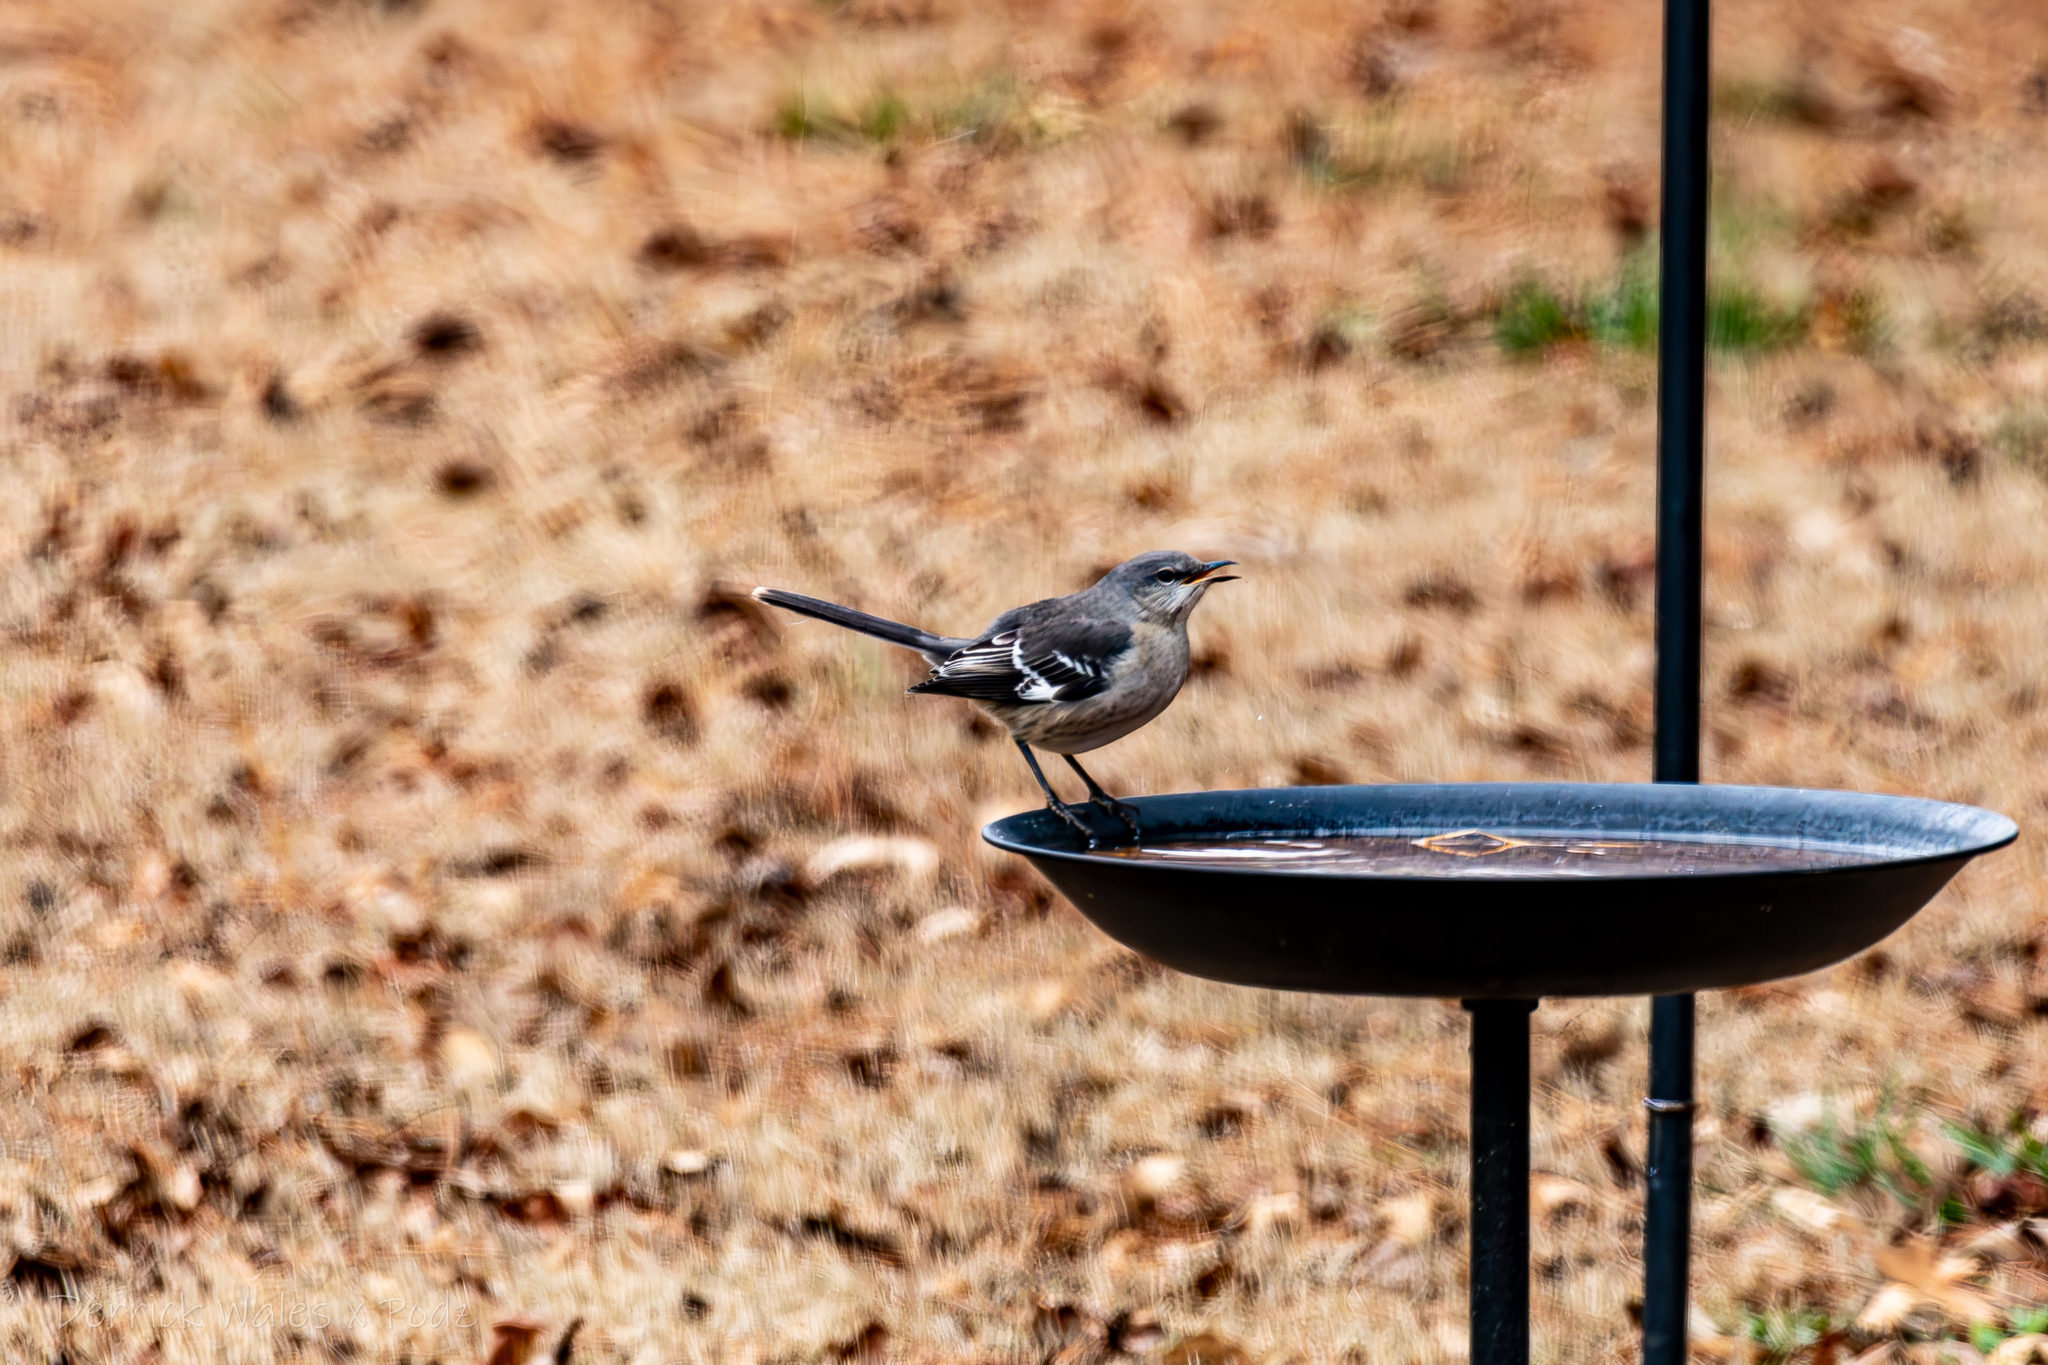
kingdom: Animalia
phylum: Chordata
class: Aves
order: Passeriformes
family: Mimidae
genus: Mimus
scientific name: Mimus polyglottos
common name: Northern mockingbird
